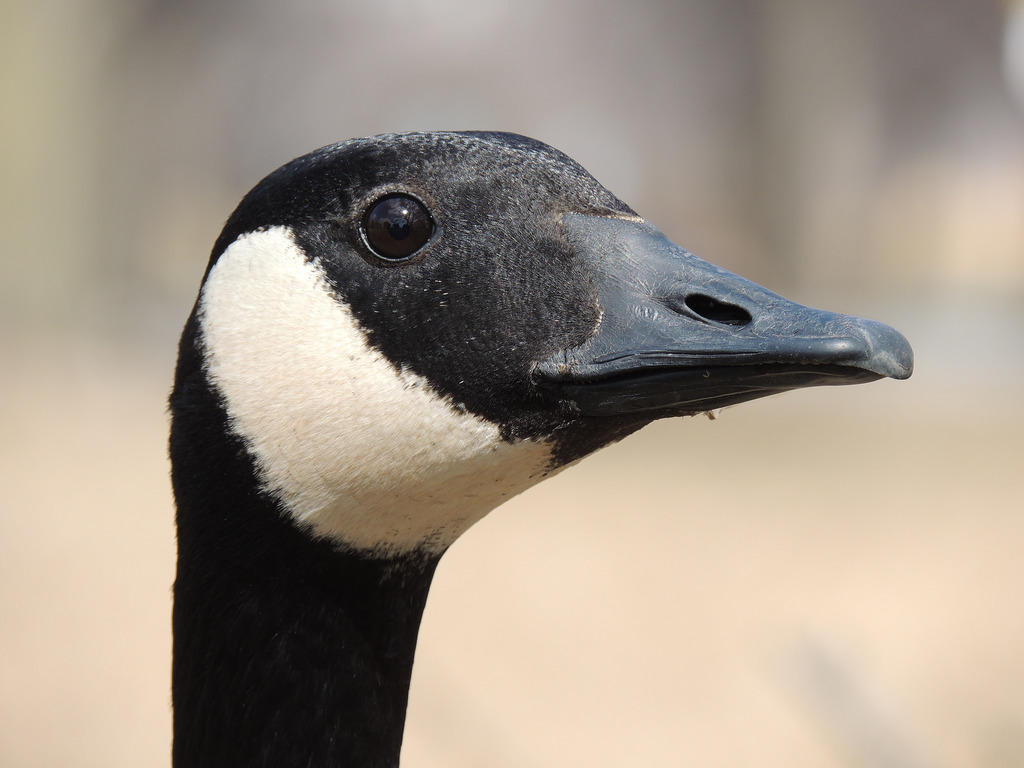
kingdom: Animalia
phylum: Chordata
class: Aves
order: Anseriformes
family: Anatidae
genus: Branta
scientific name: Branta canadensis
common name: Canada goose
